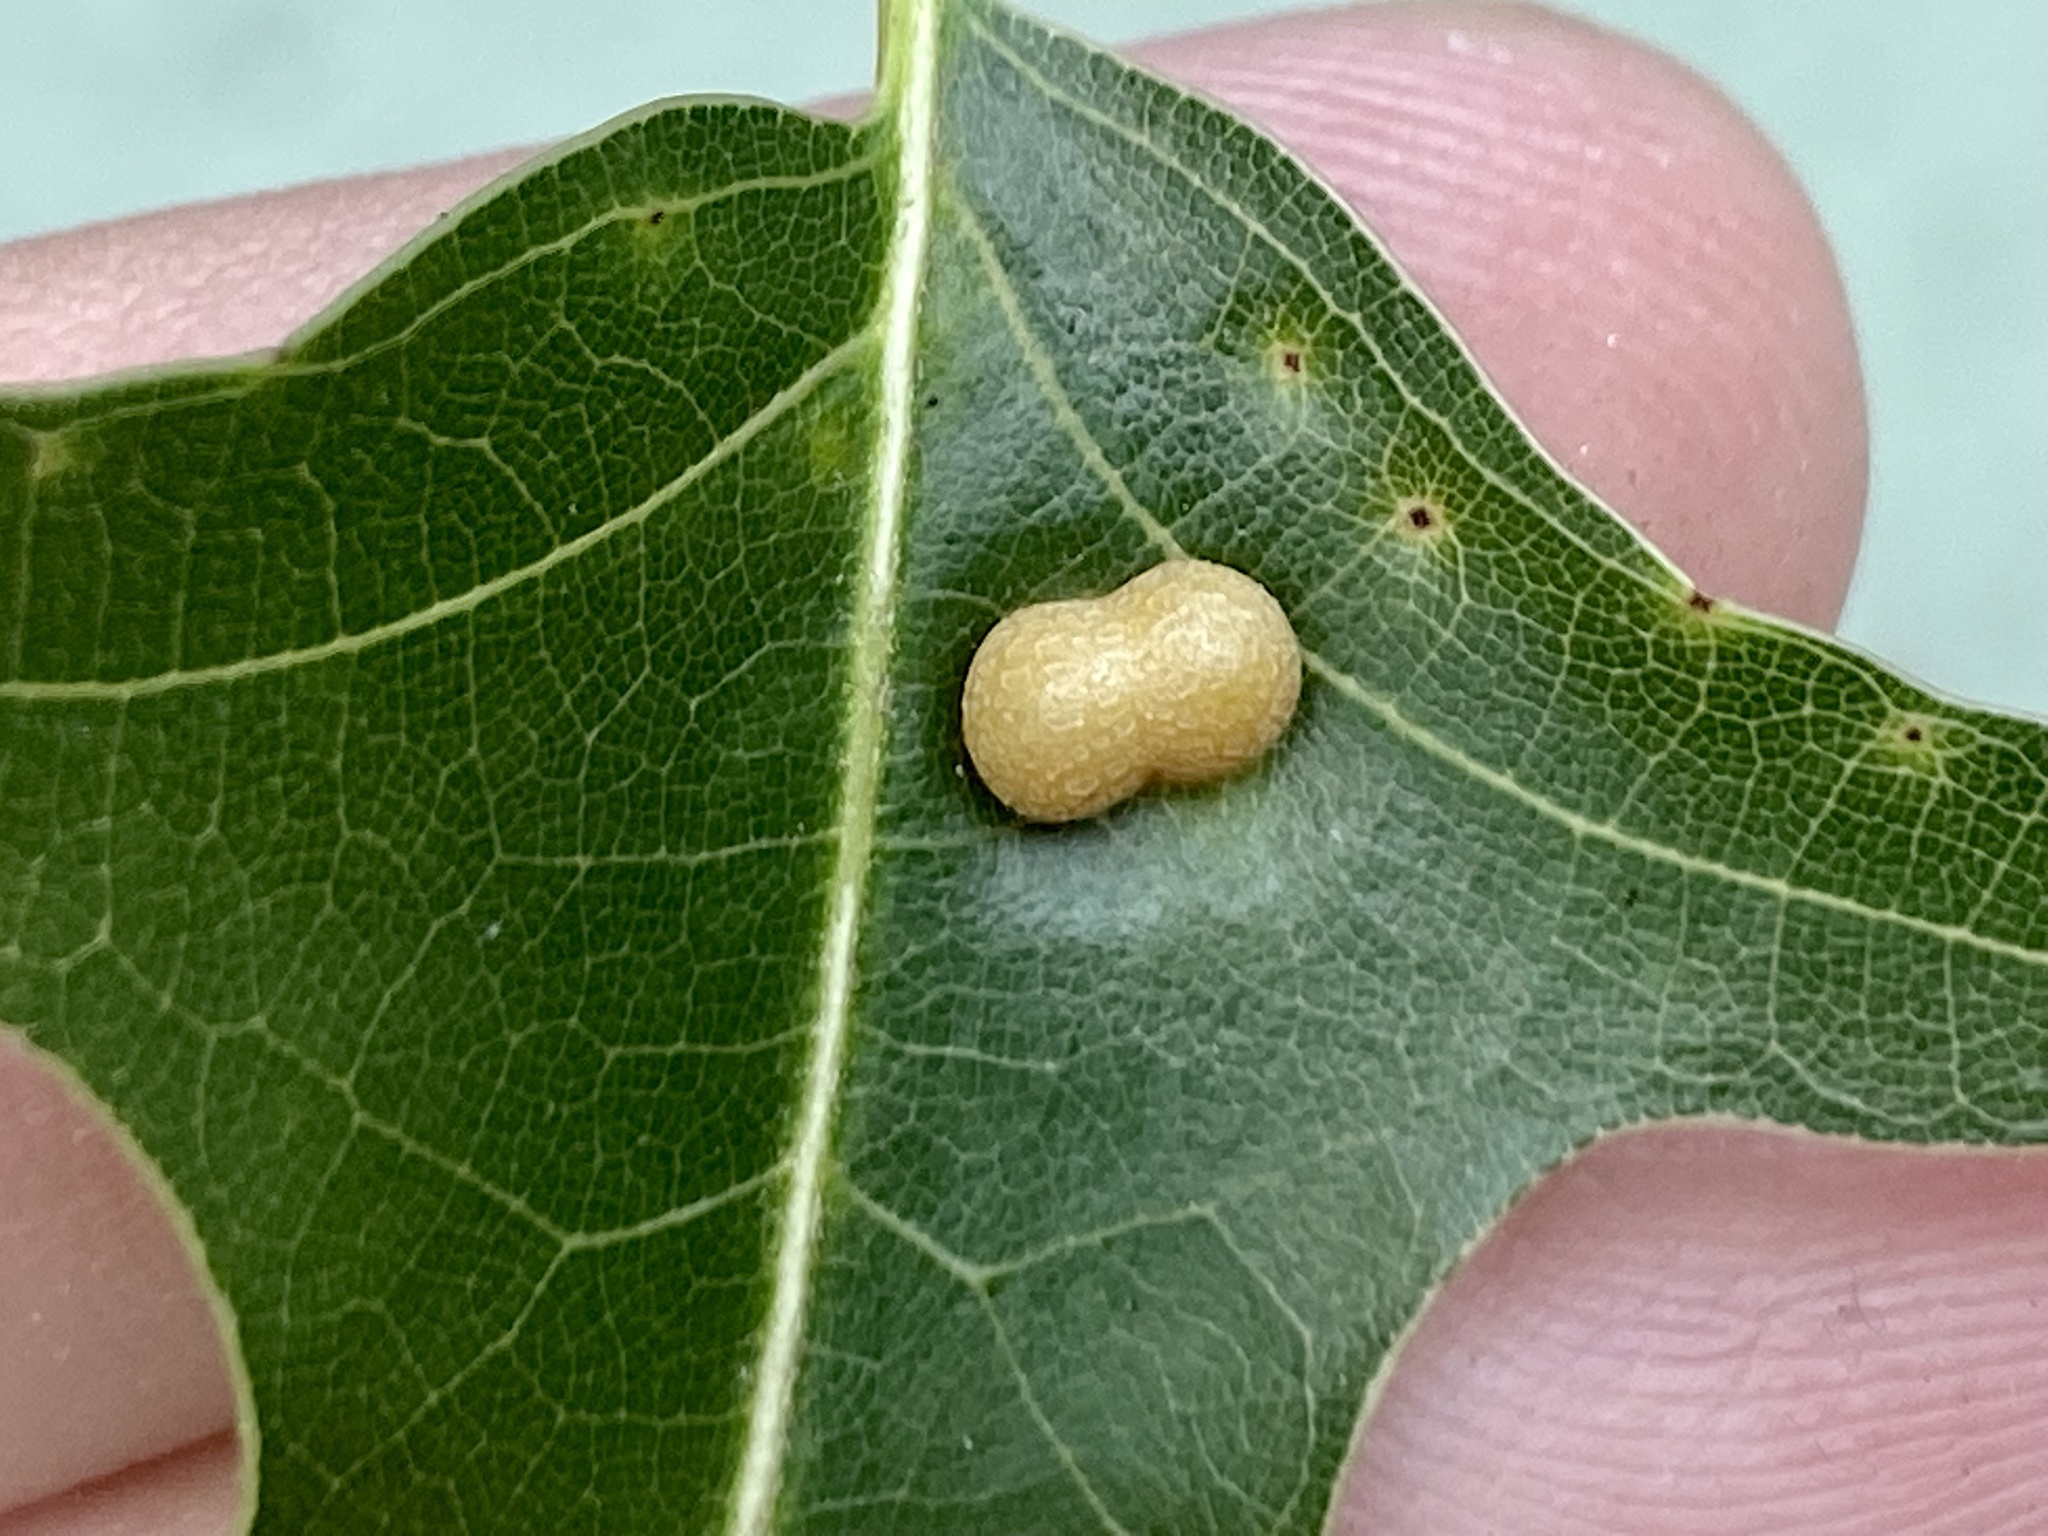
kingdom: Animalia
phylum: Arthropoda
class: Insecta
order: Diptera
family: Cecidomyiidae
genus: Polystepha
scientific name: Polystepha pilulae
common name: Oak leaf gall midge
